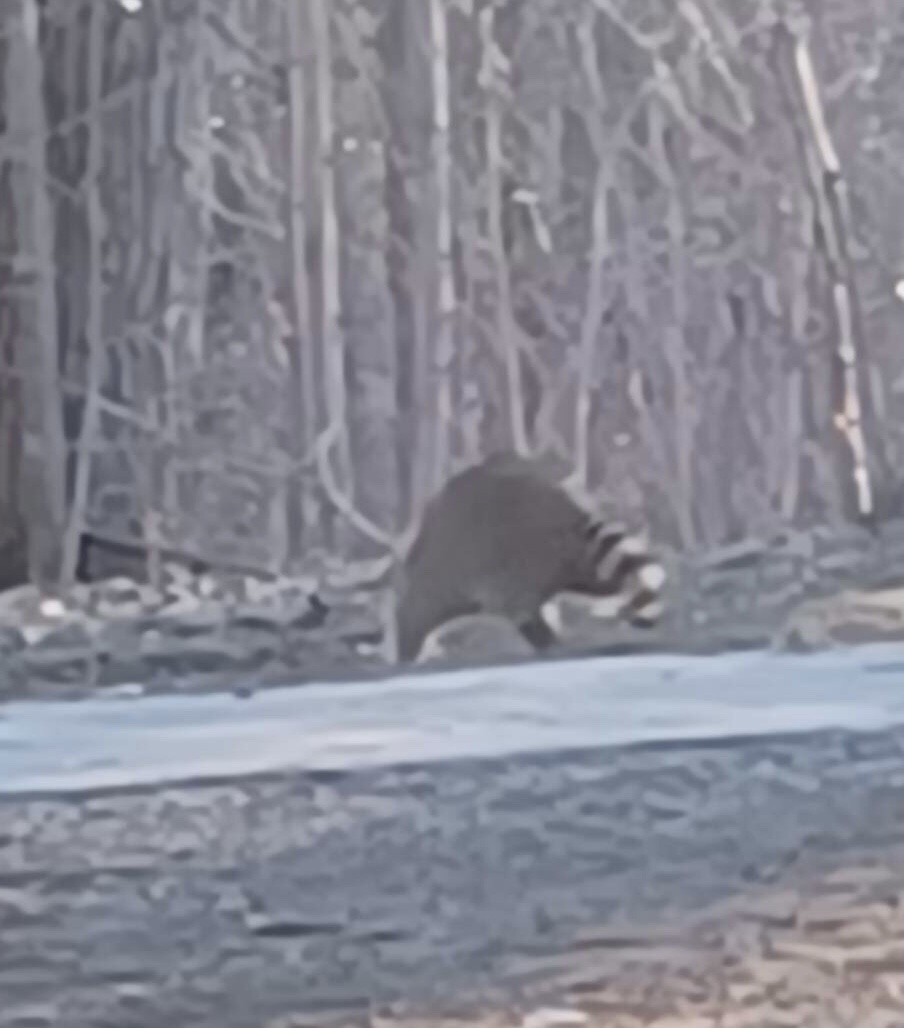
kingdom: Animalia
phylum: Chordata
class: Mammalia
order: Carnivora
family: Procyonidae
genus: Procyon
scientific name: Procyon lotor
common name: Raccoon
